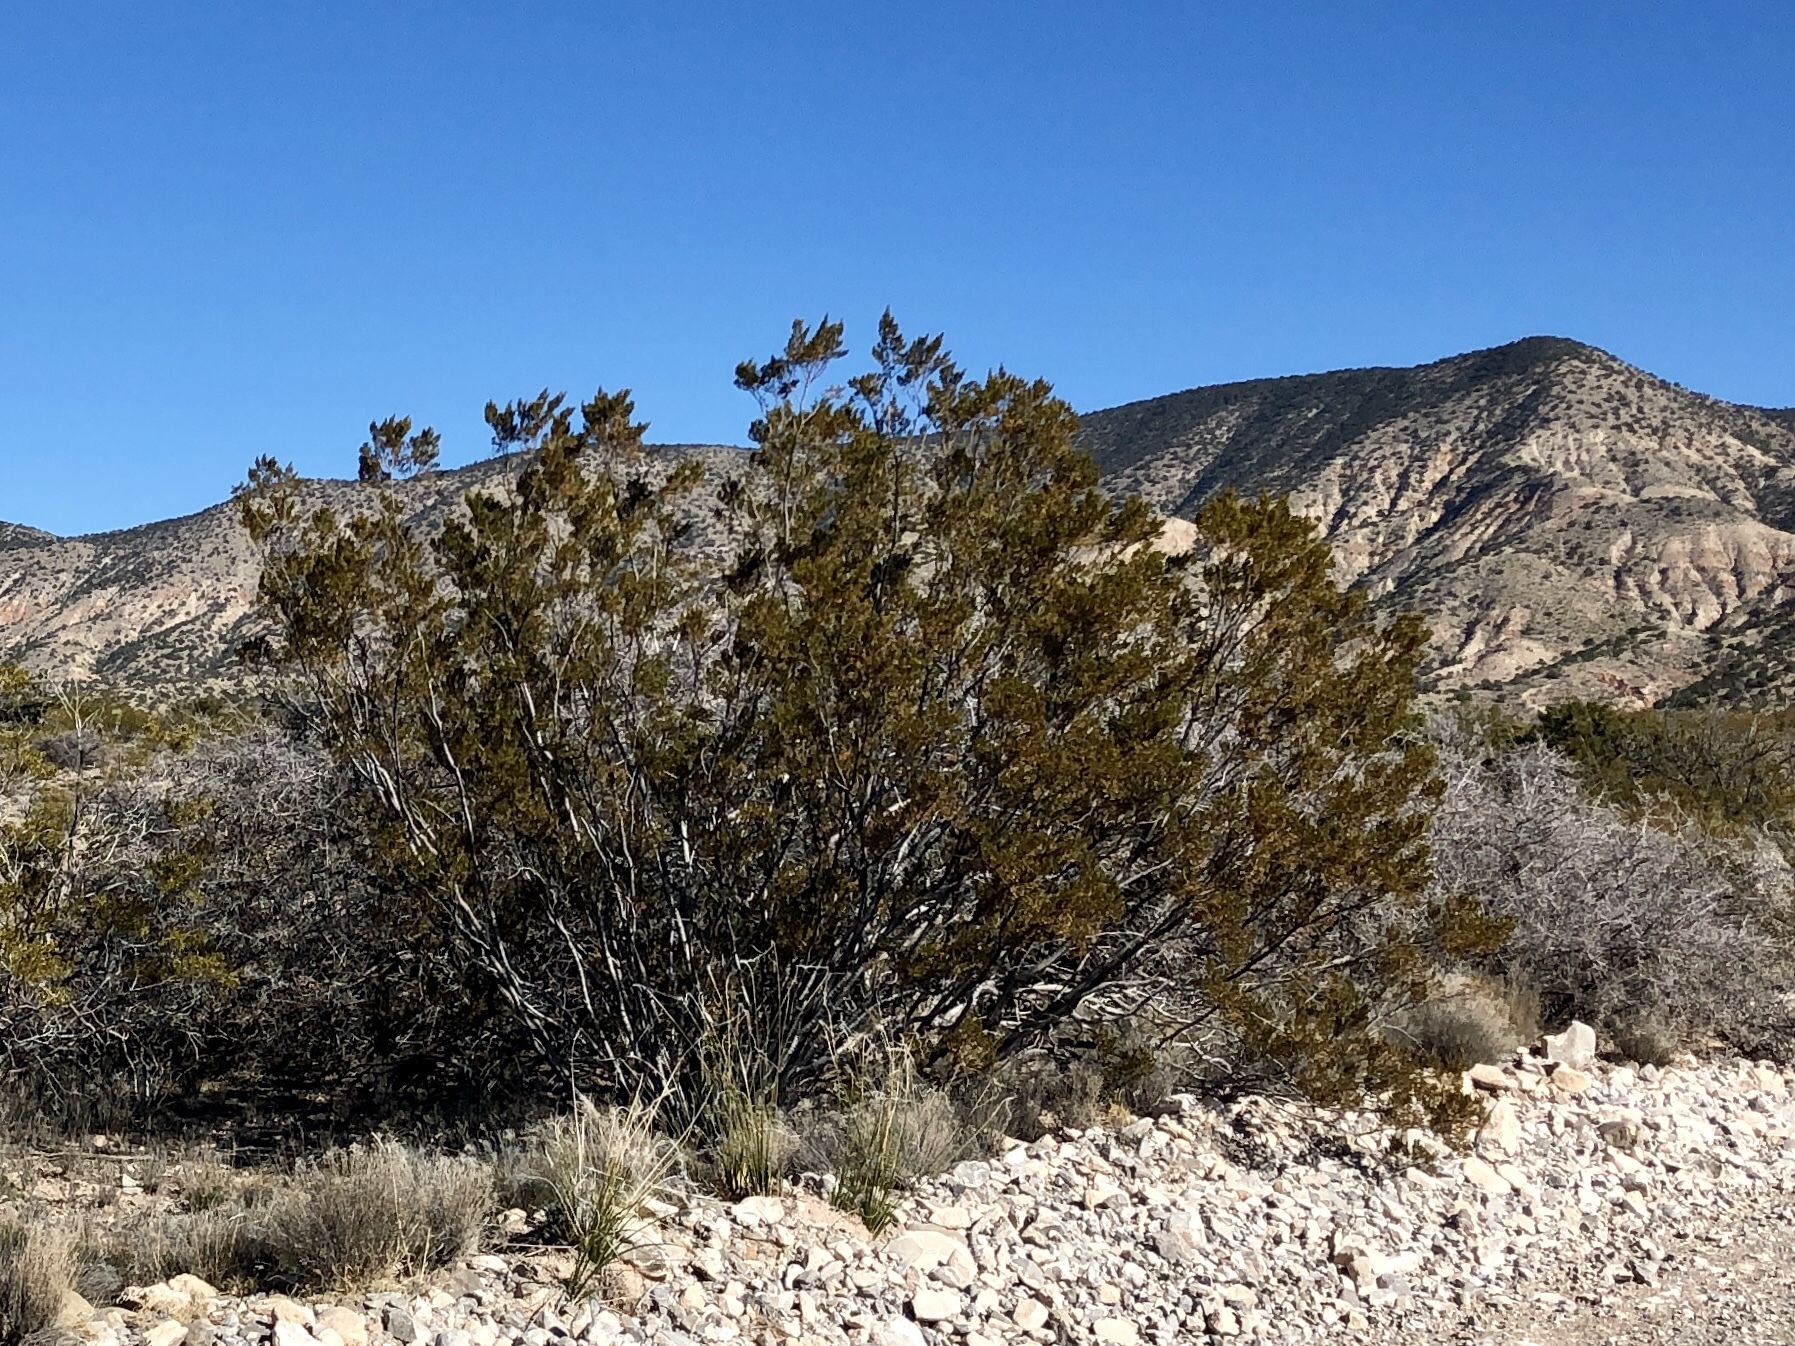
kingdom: Plantae
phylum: Tracheophyta
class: Magnoliopsida
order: Zygophyllales
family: Zygophyllaceae
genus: Larrea
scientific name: Larrea tridentata
